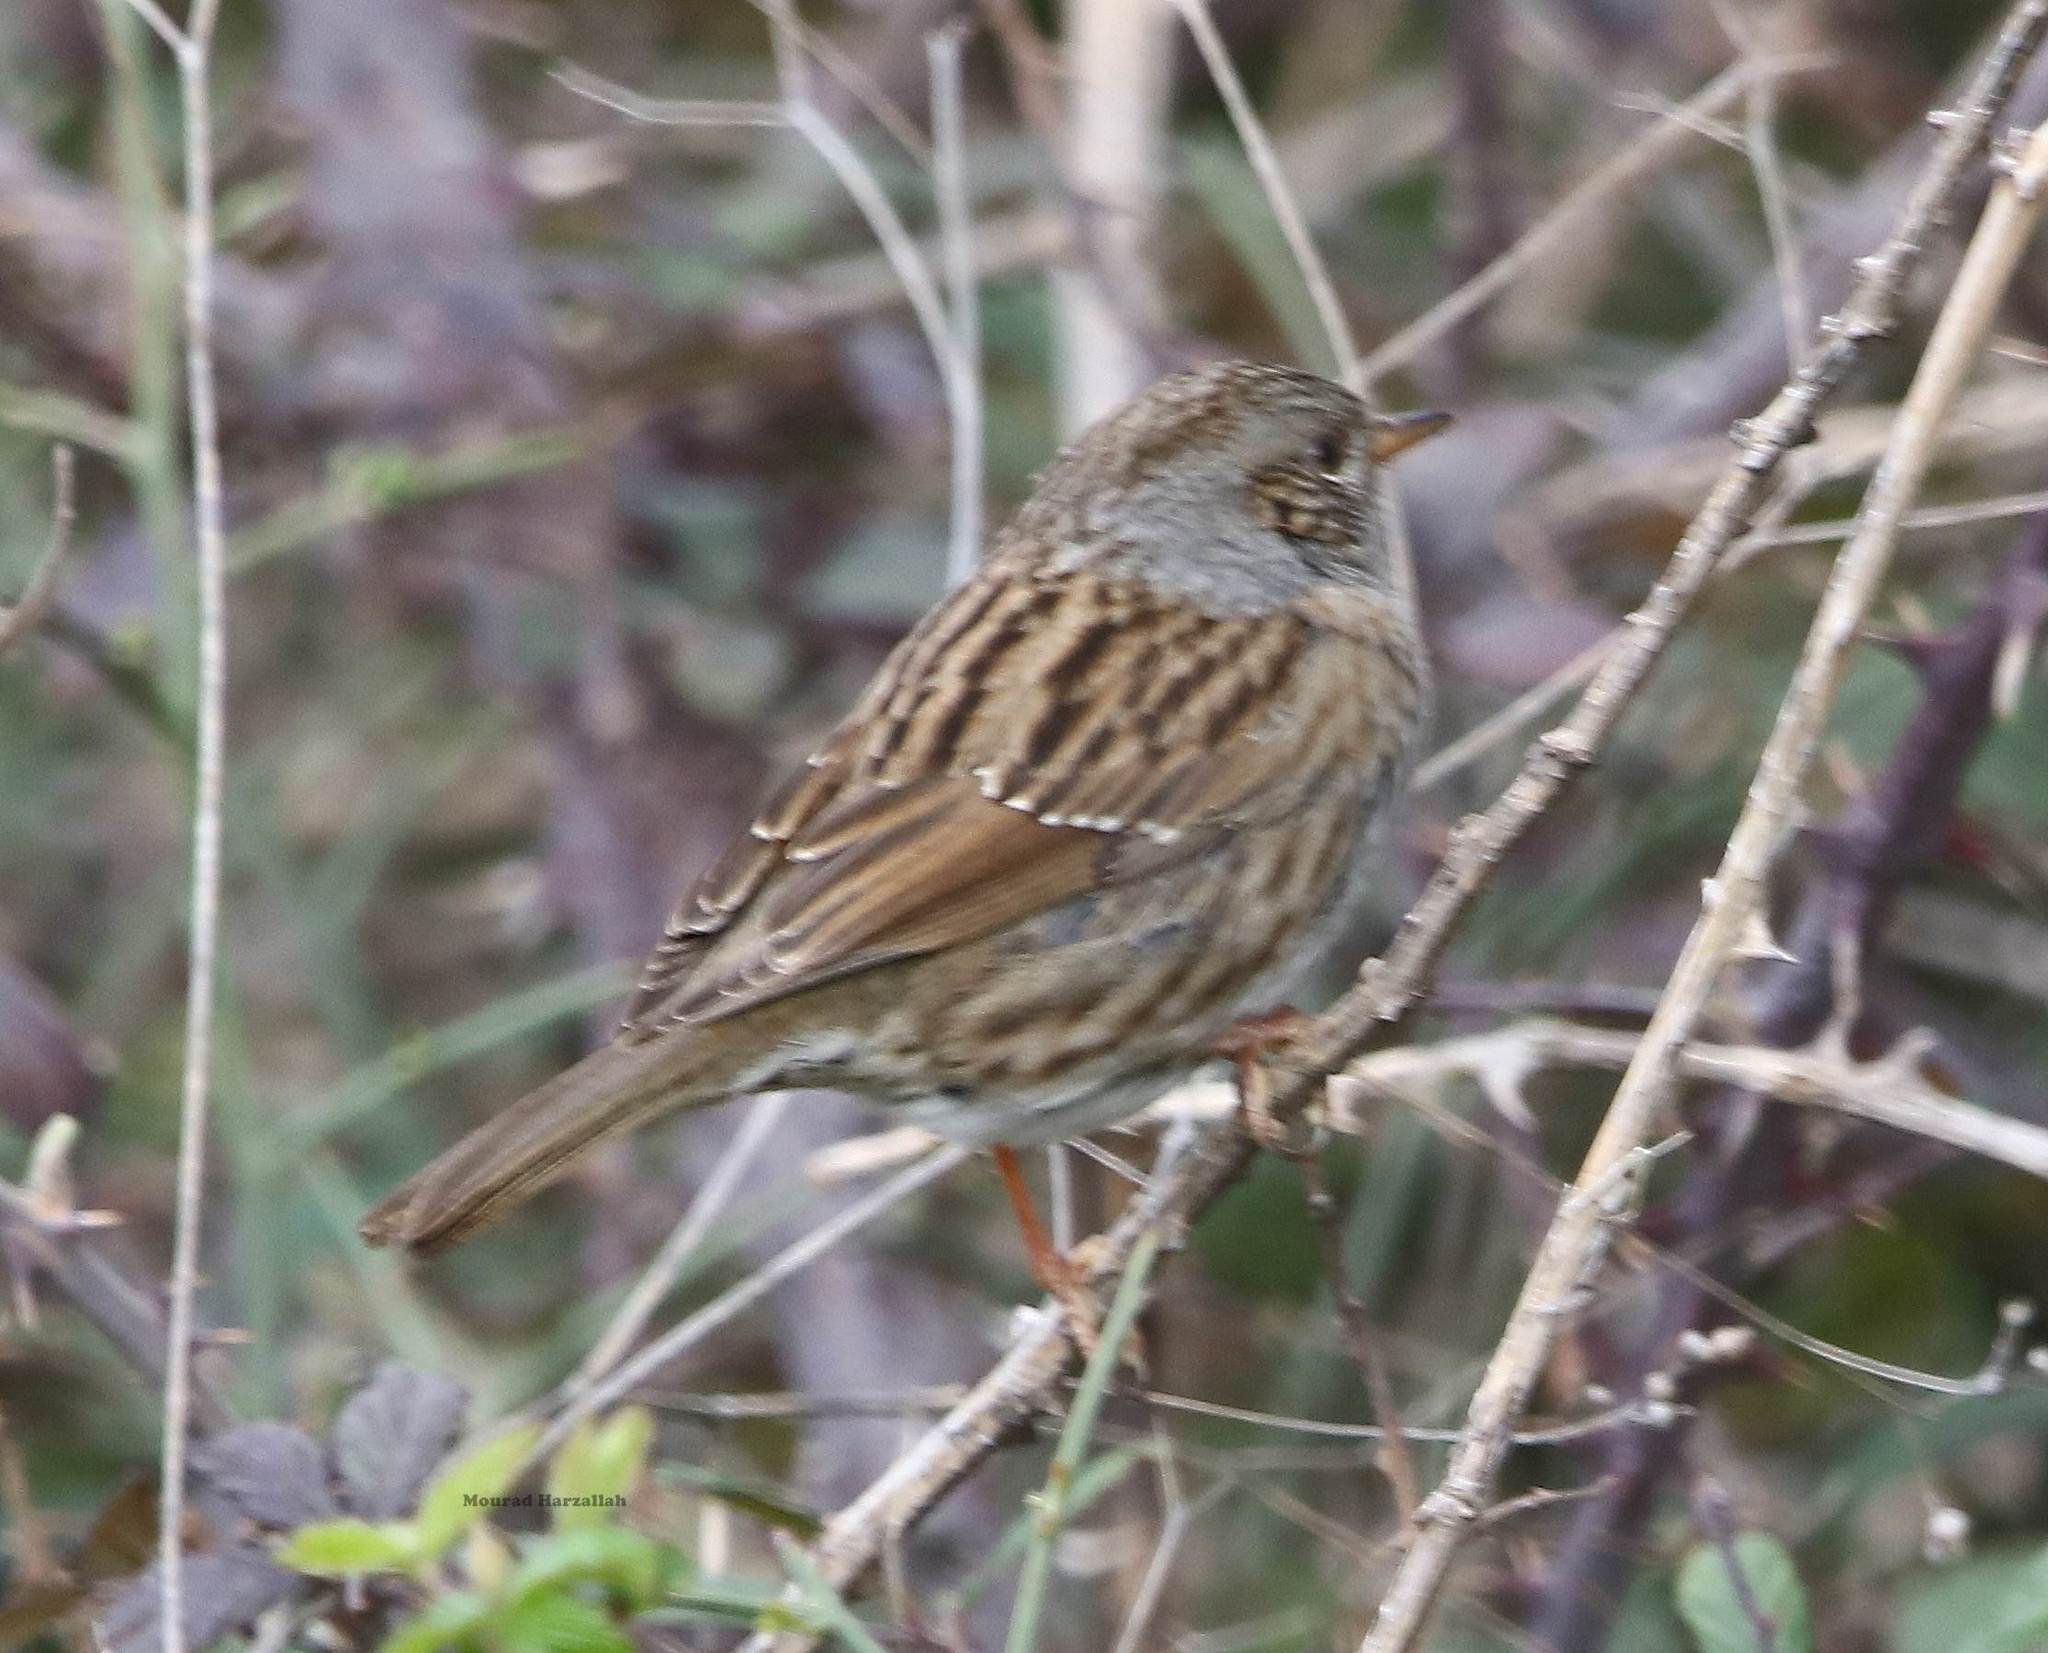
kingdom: Animalia
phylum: Chordata
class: Aves
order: Passeriformes
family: Prunellidae
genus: Prunella
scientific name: Prunella modularis
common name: Dunnock
